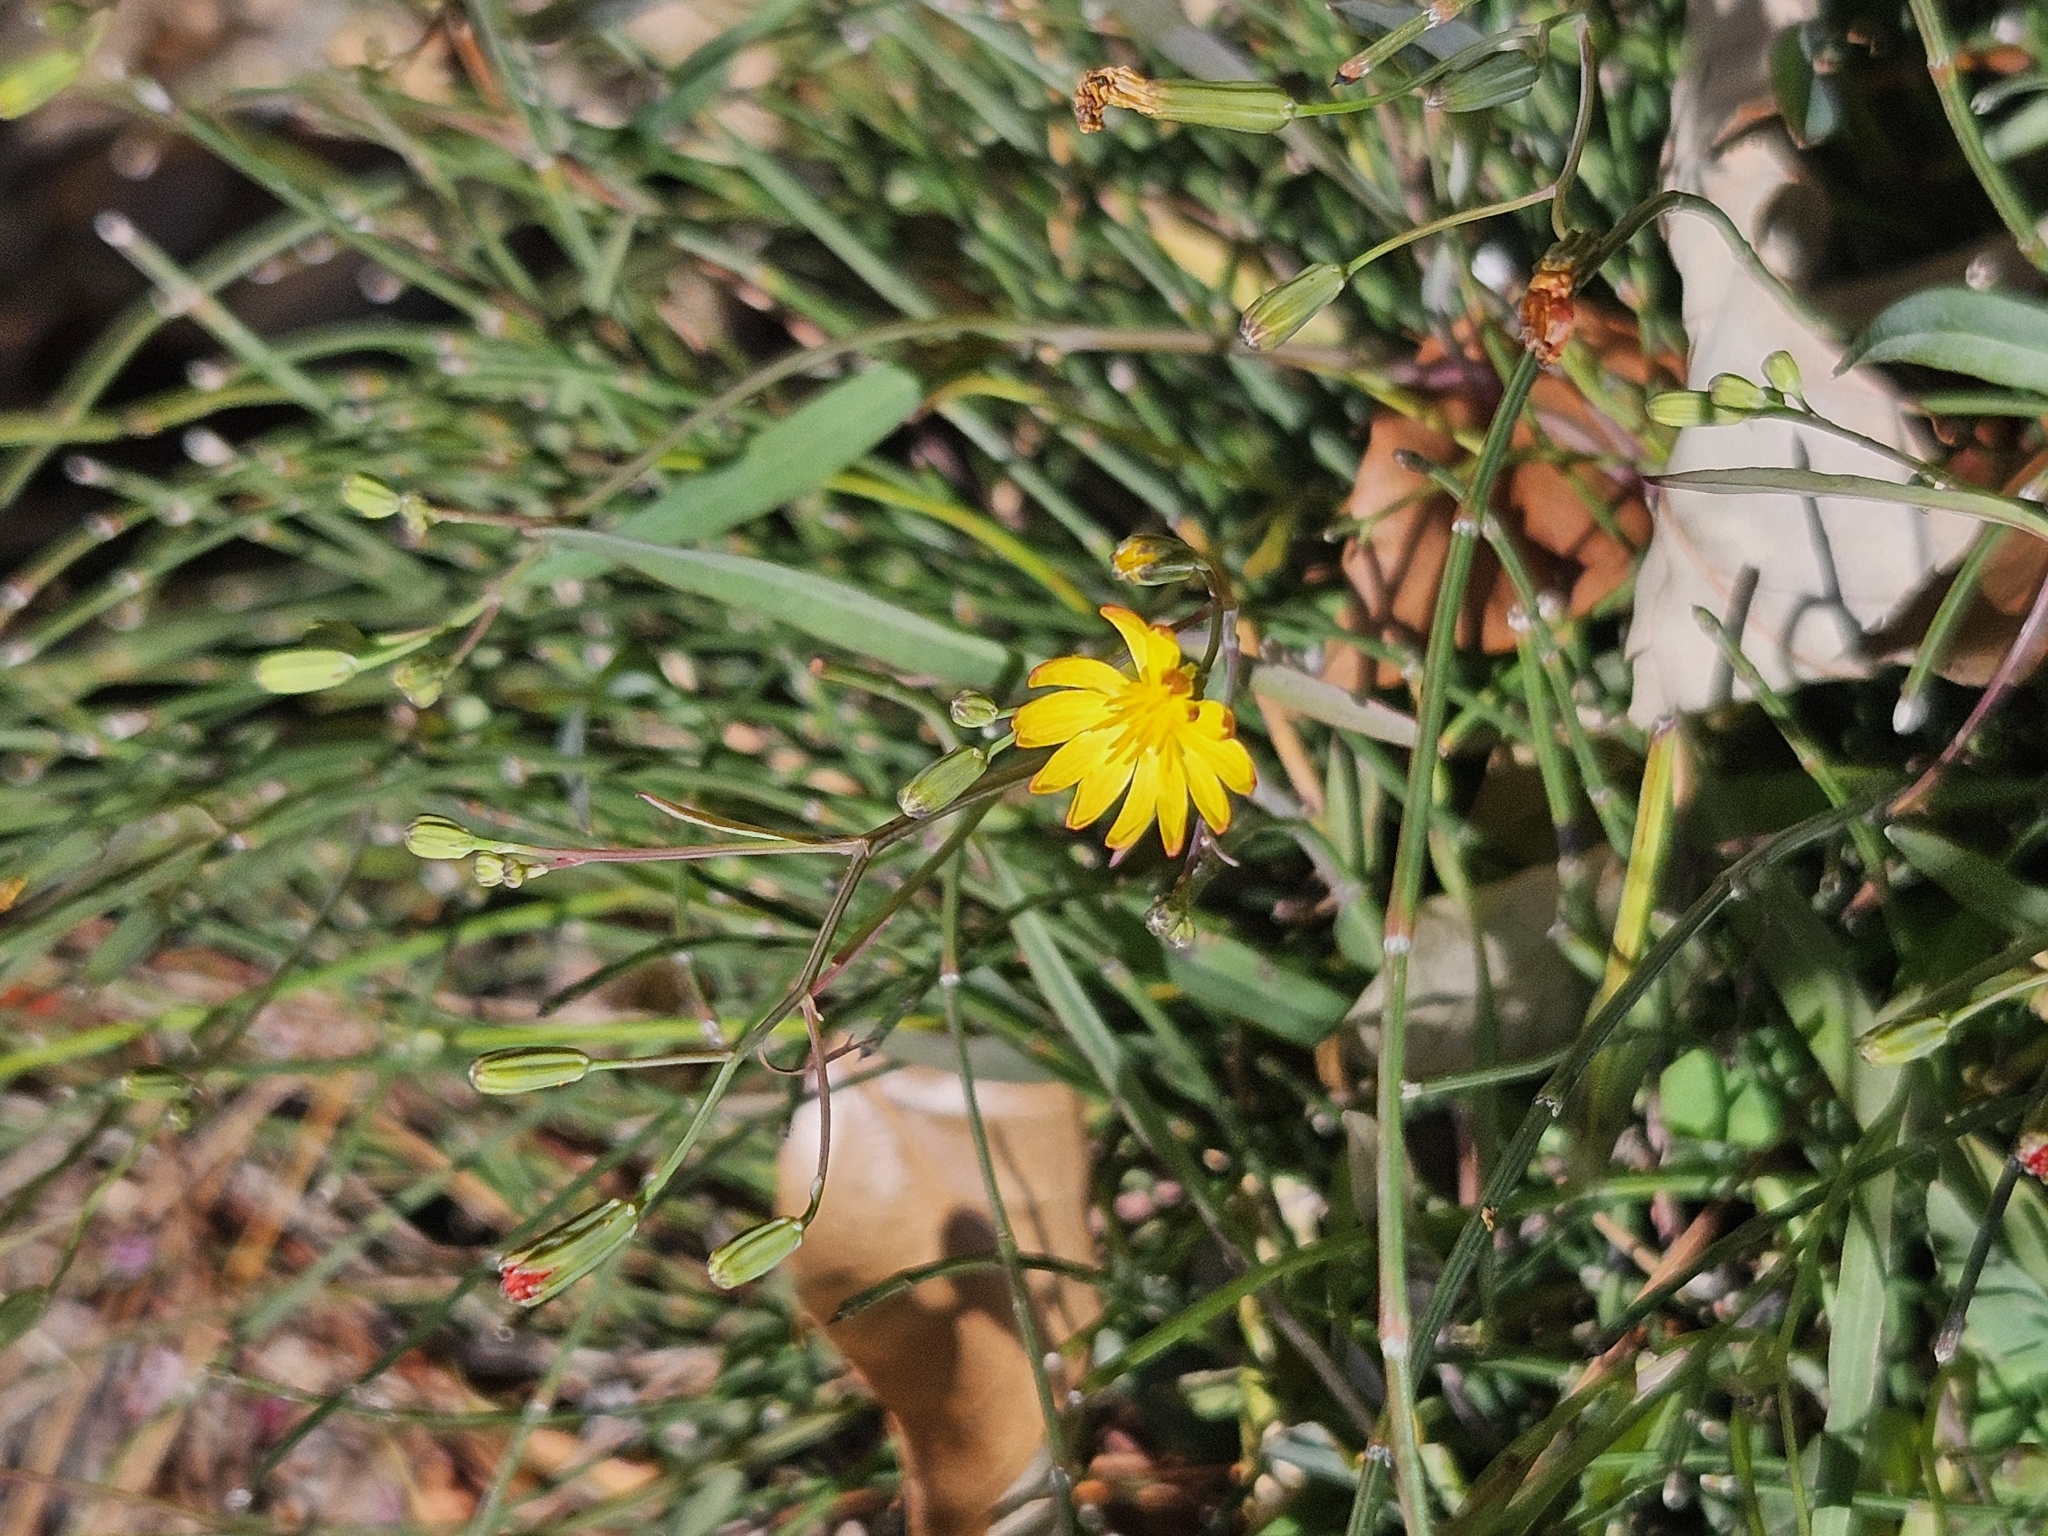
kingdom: Plantae
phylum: Tracheophyta
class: Magnoliopsida
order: Asterales
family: Asteraceae
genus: Ixeris
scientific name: Ixeris chinensis
